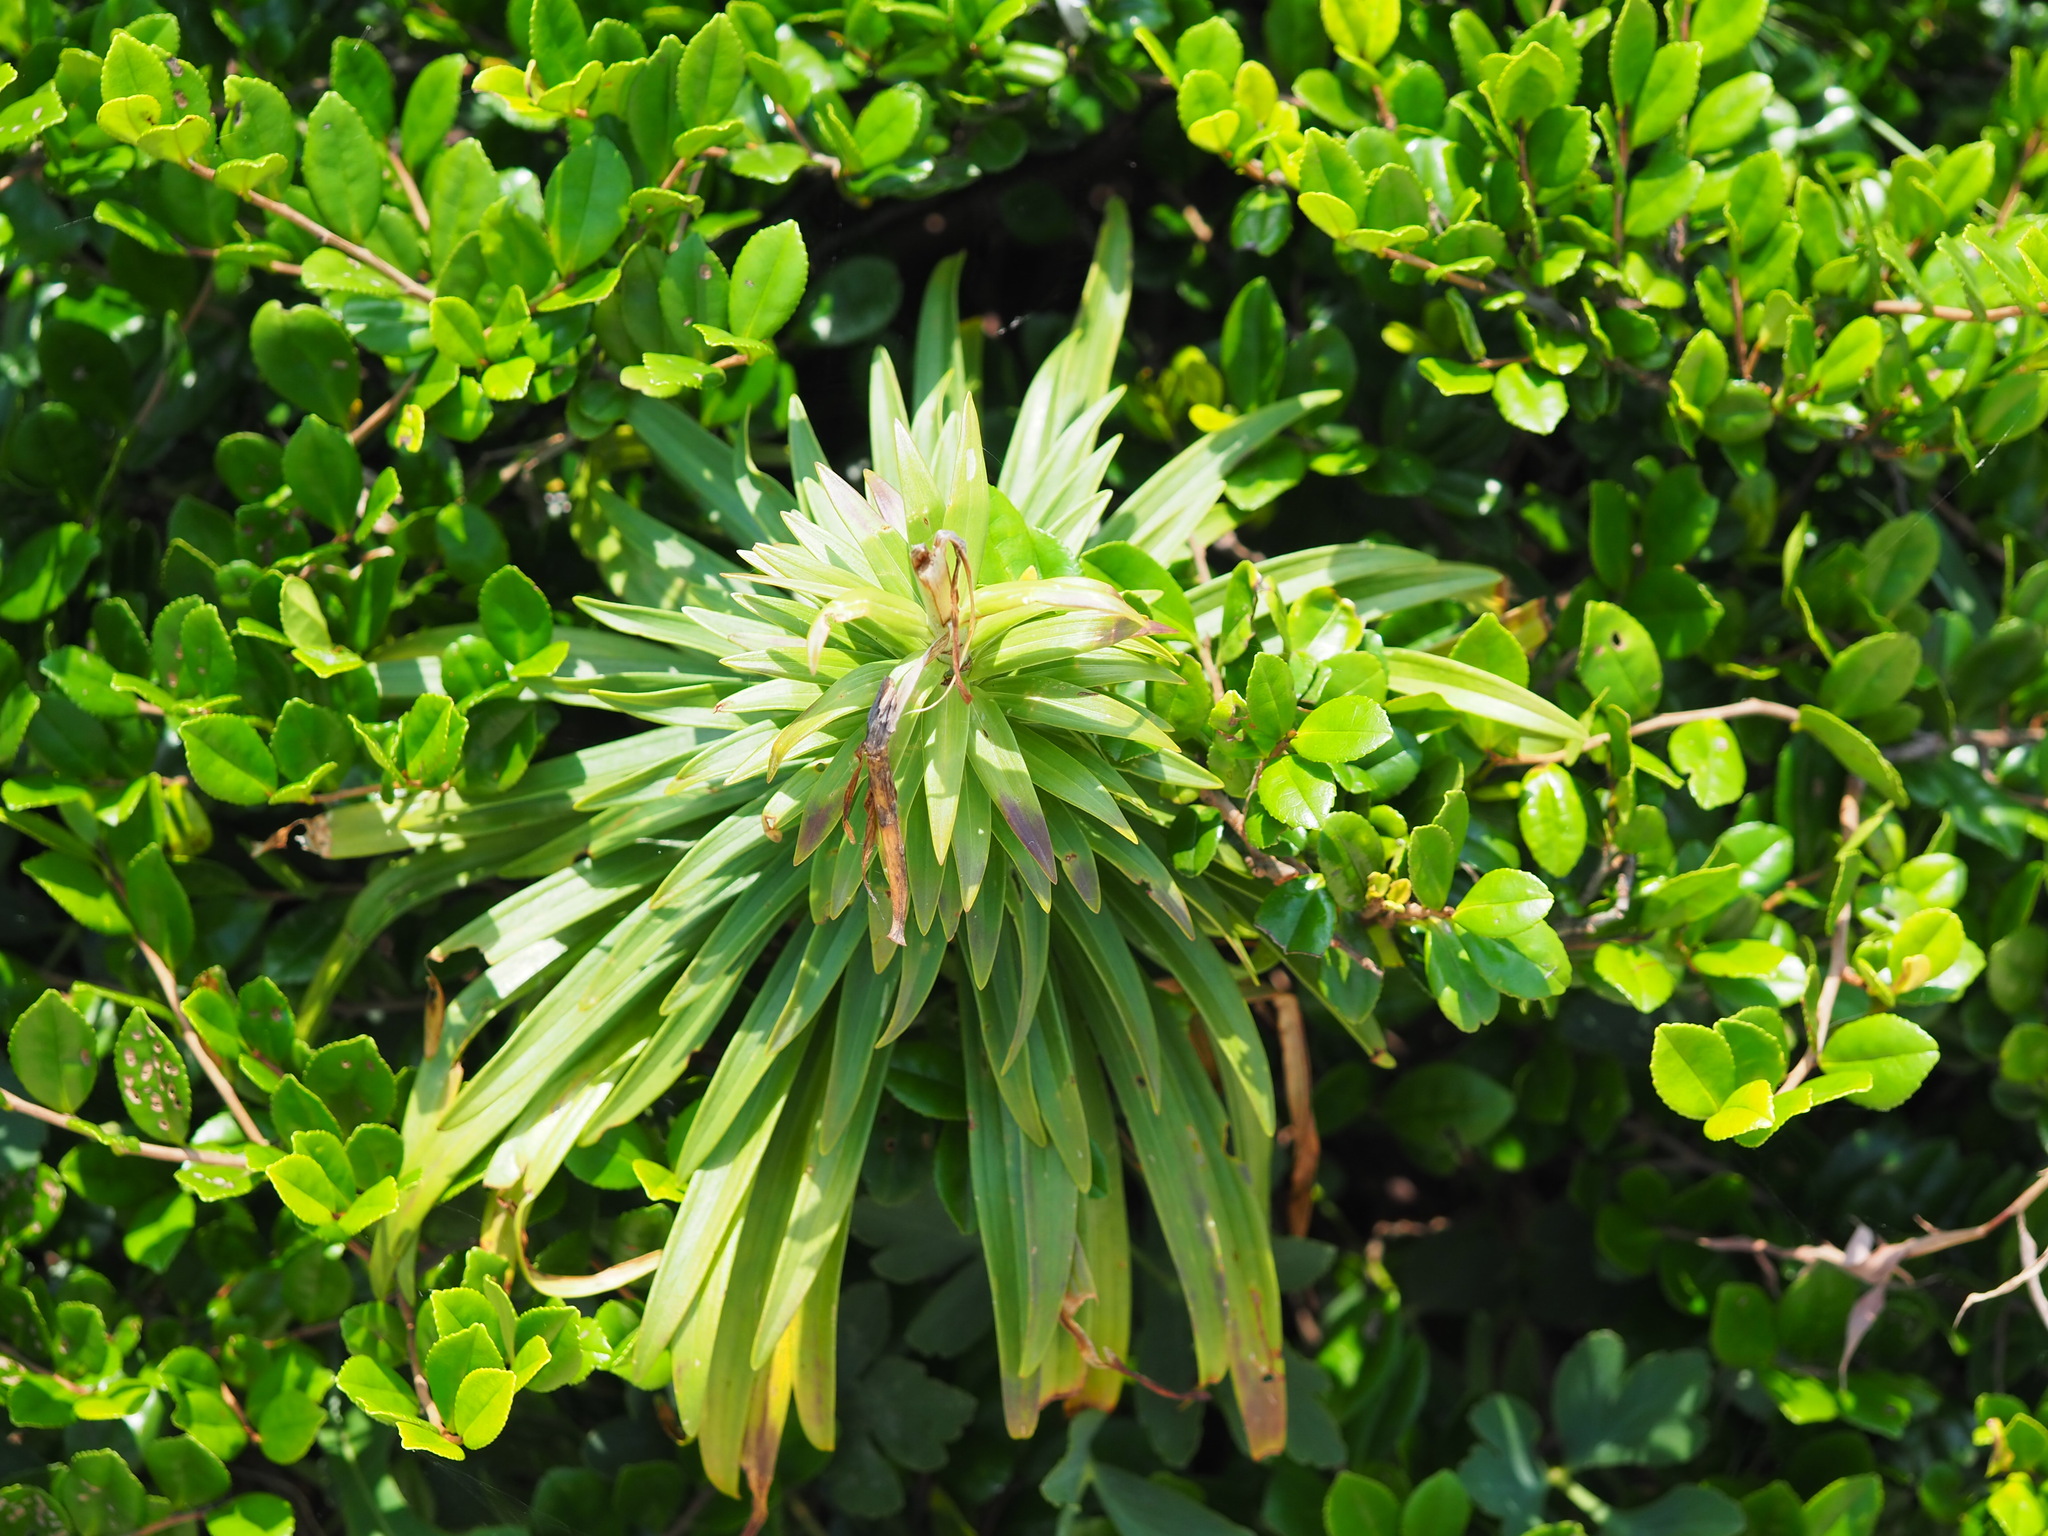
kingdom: Plantae
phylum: Tracheophyta
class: Liliopsida
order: Liliales
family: Liliaceae
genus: Lilium
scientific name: Lilium longiflorum
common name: Easter lily
